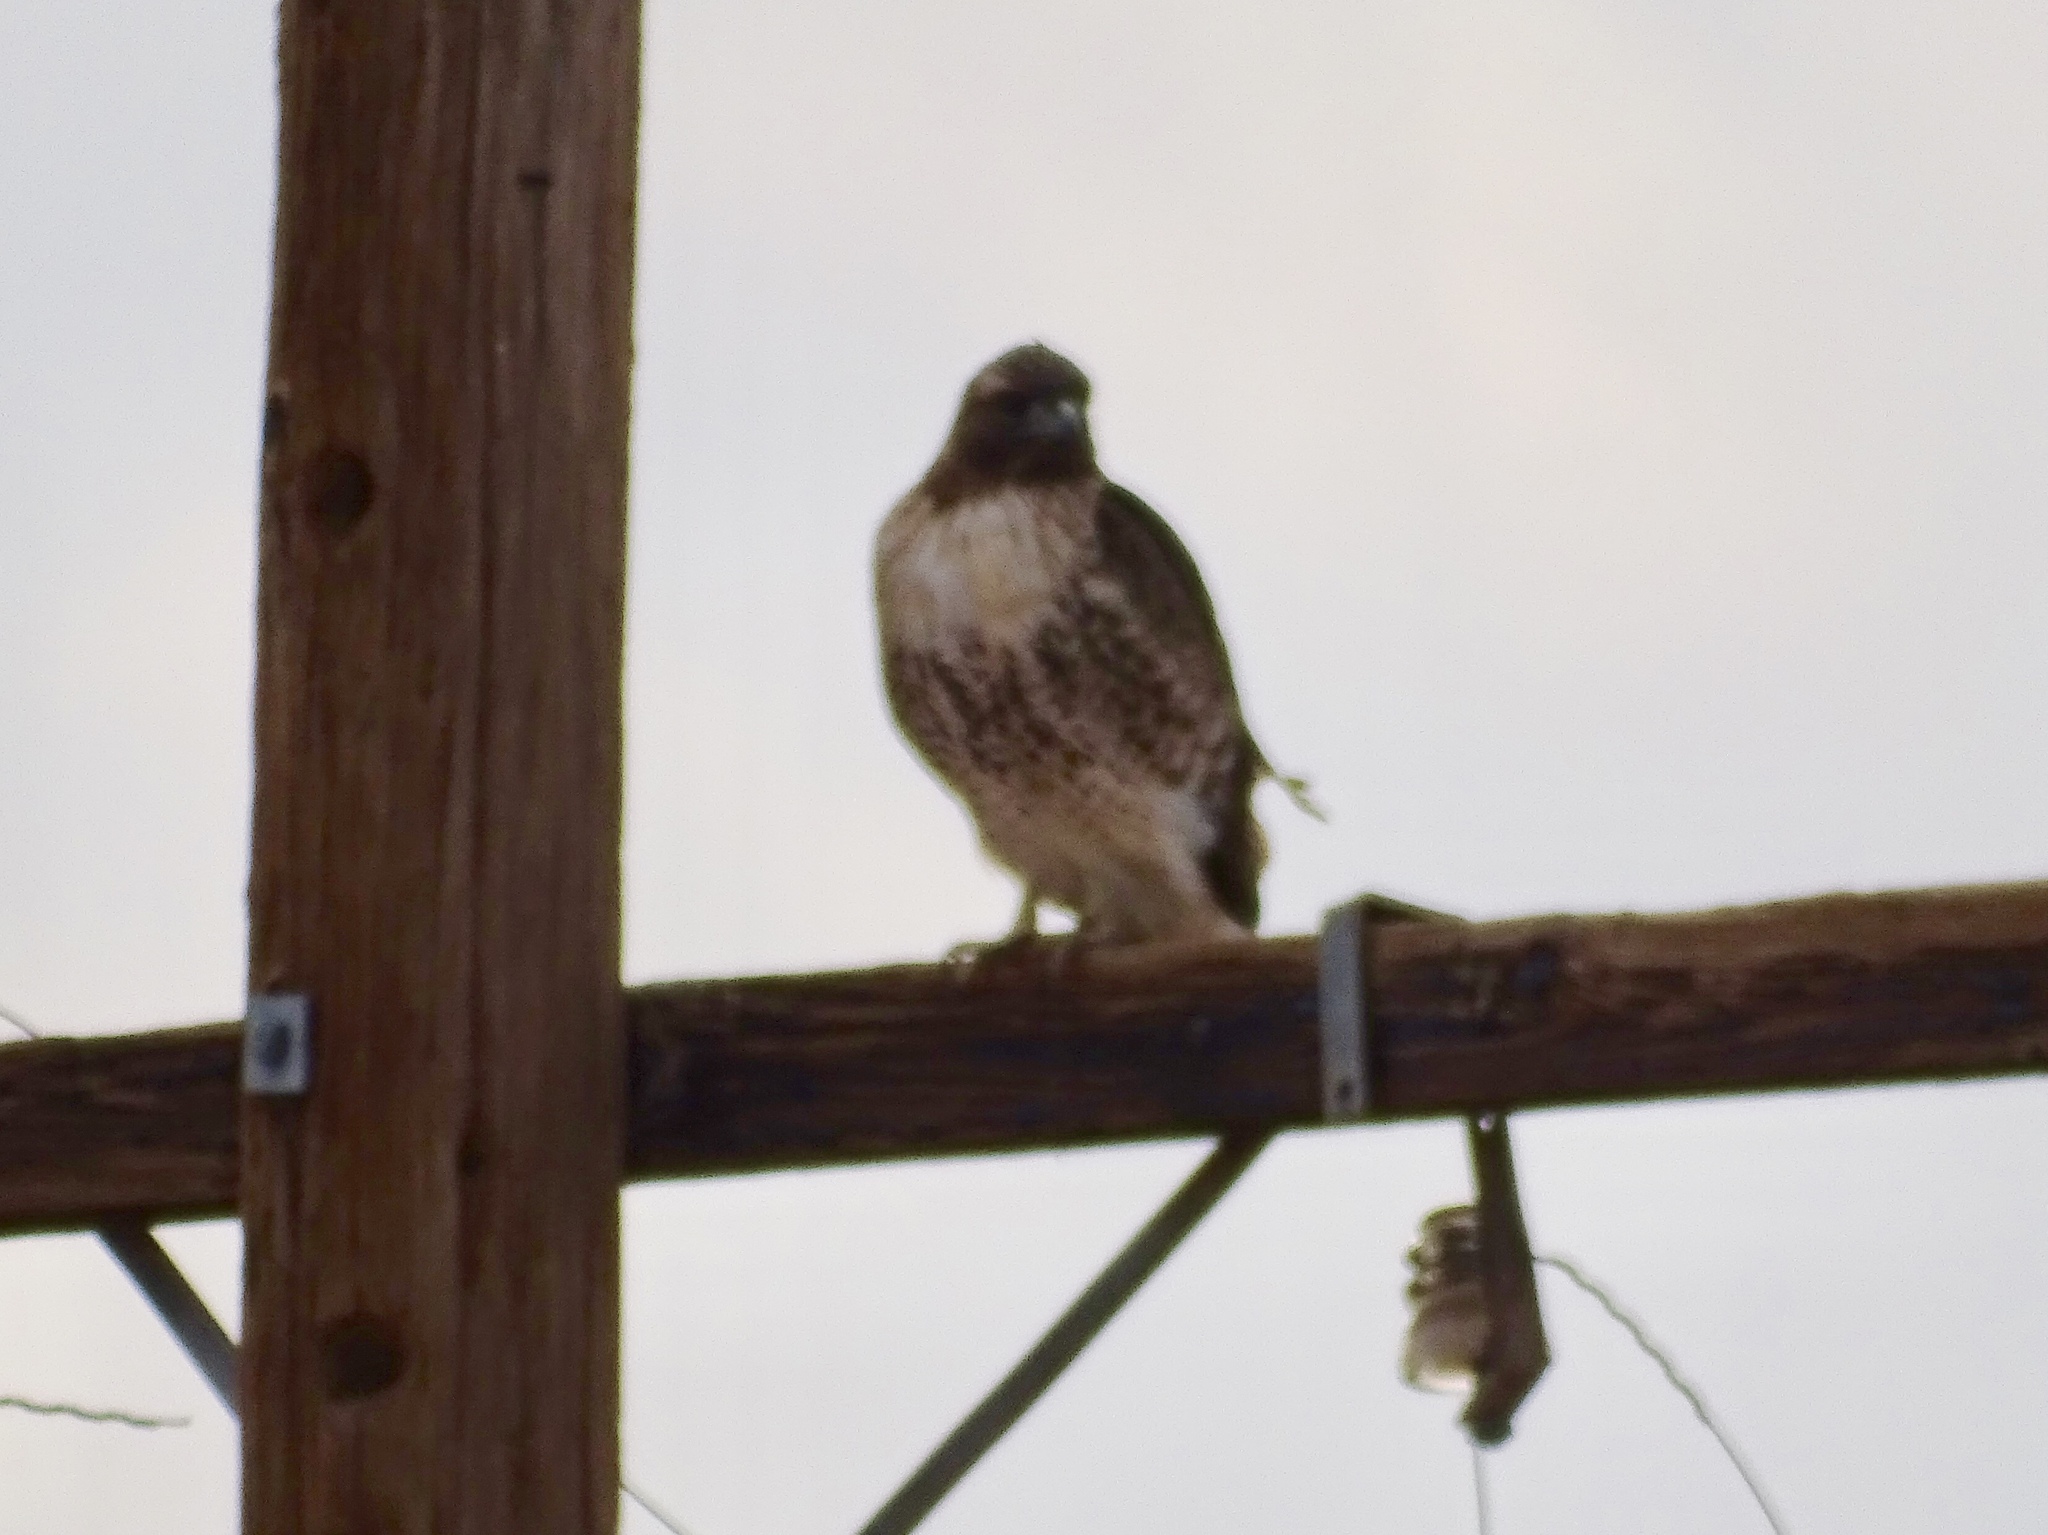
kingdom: Animalia
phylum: Chordata
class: Aves
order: Accipitriformes
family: Accipitridae
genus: Buteo
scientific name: Buteo jamaicensis
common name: Red-tailed hawk
